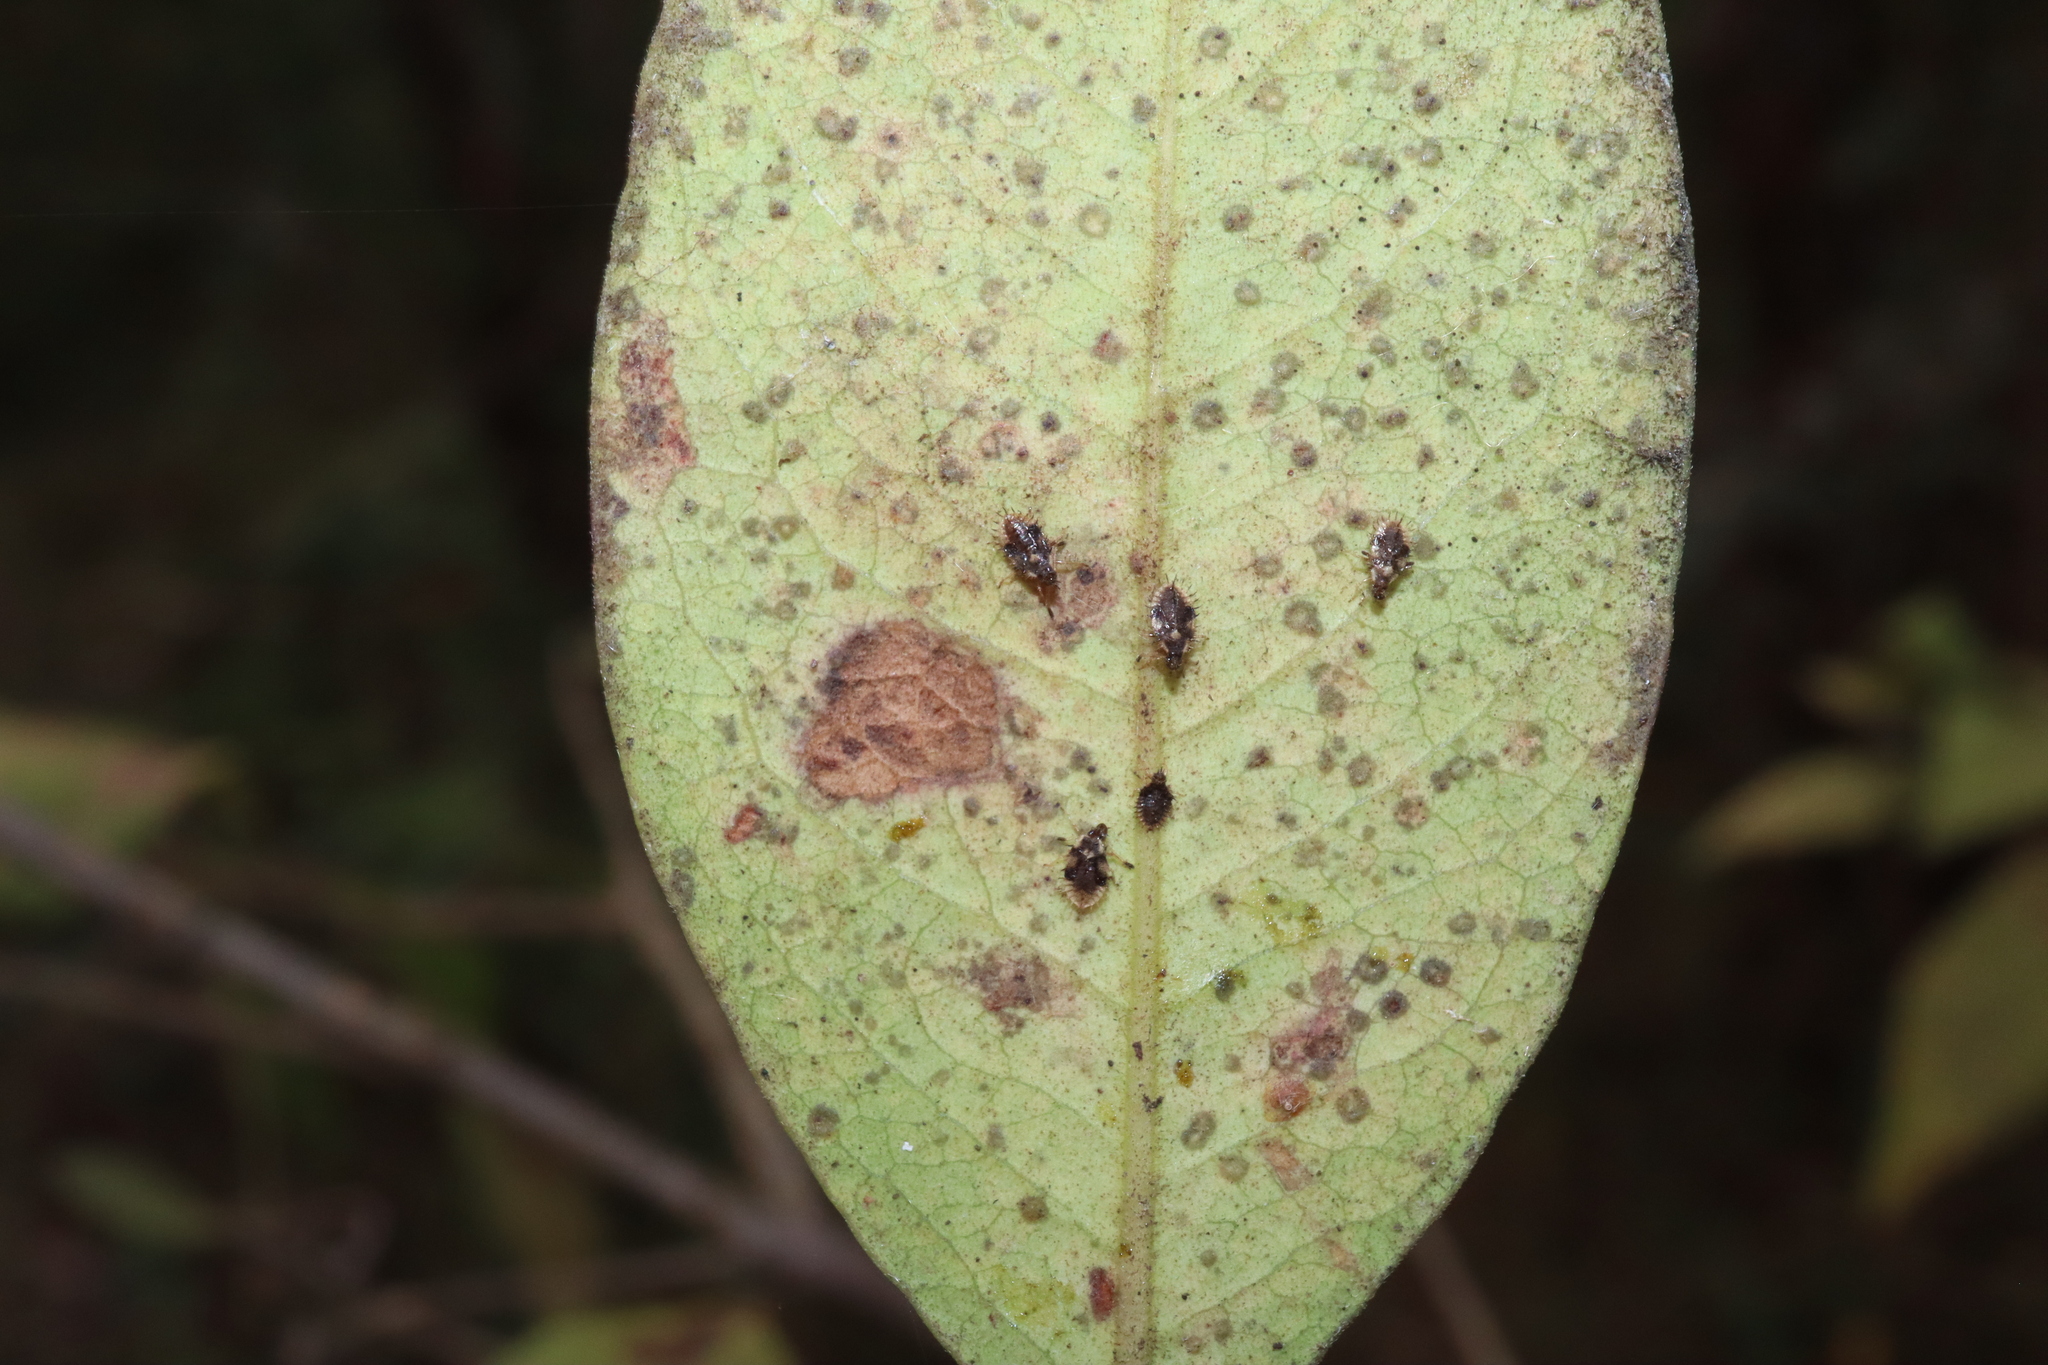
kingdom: Animalia
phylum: Arthropoda
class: Insecta
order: Hemiptera
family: Tingidae
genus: Froggattia
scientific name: Froggattia olivinia
